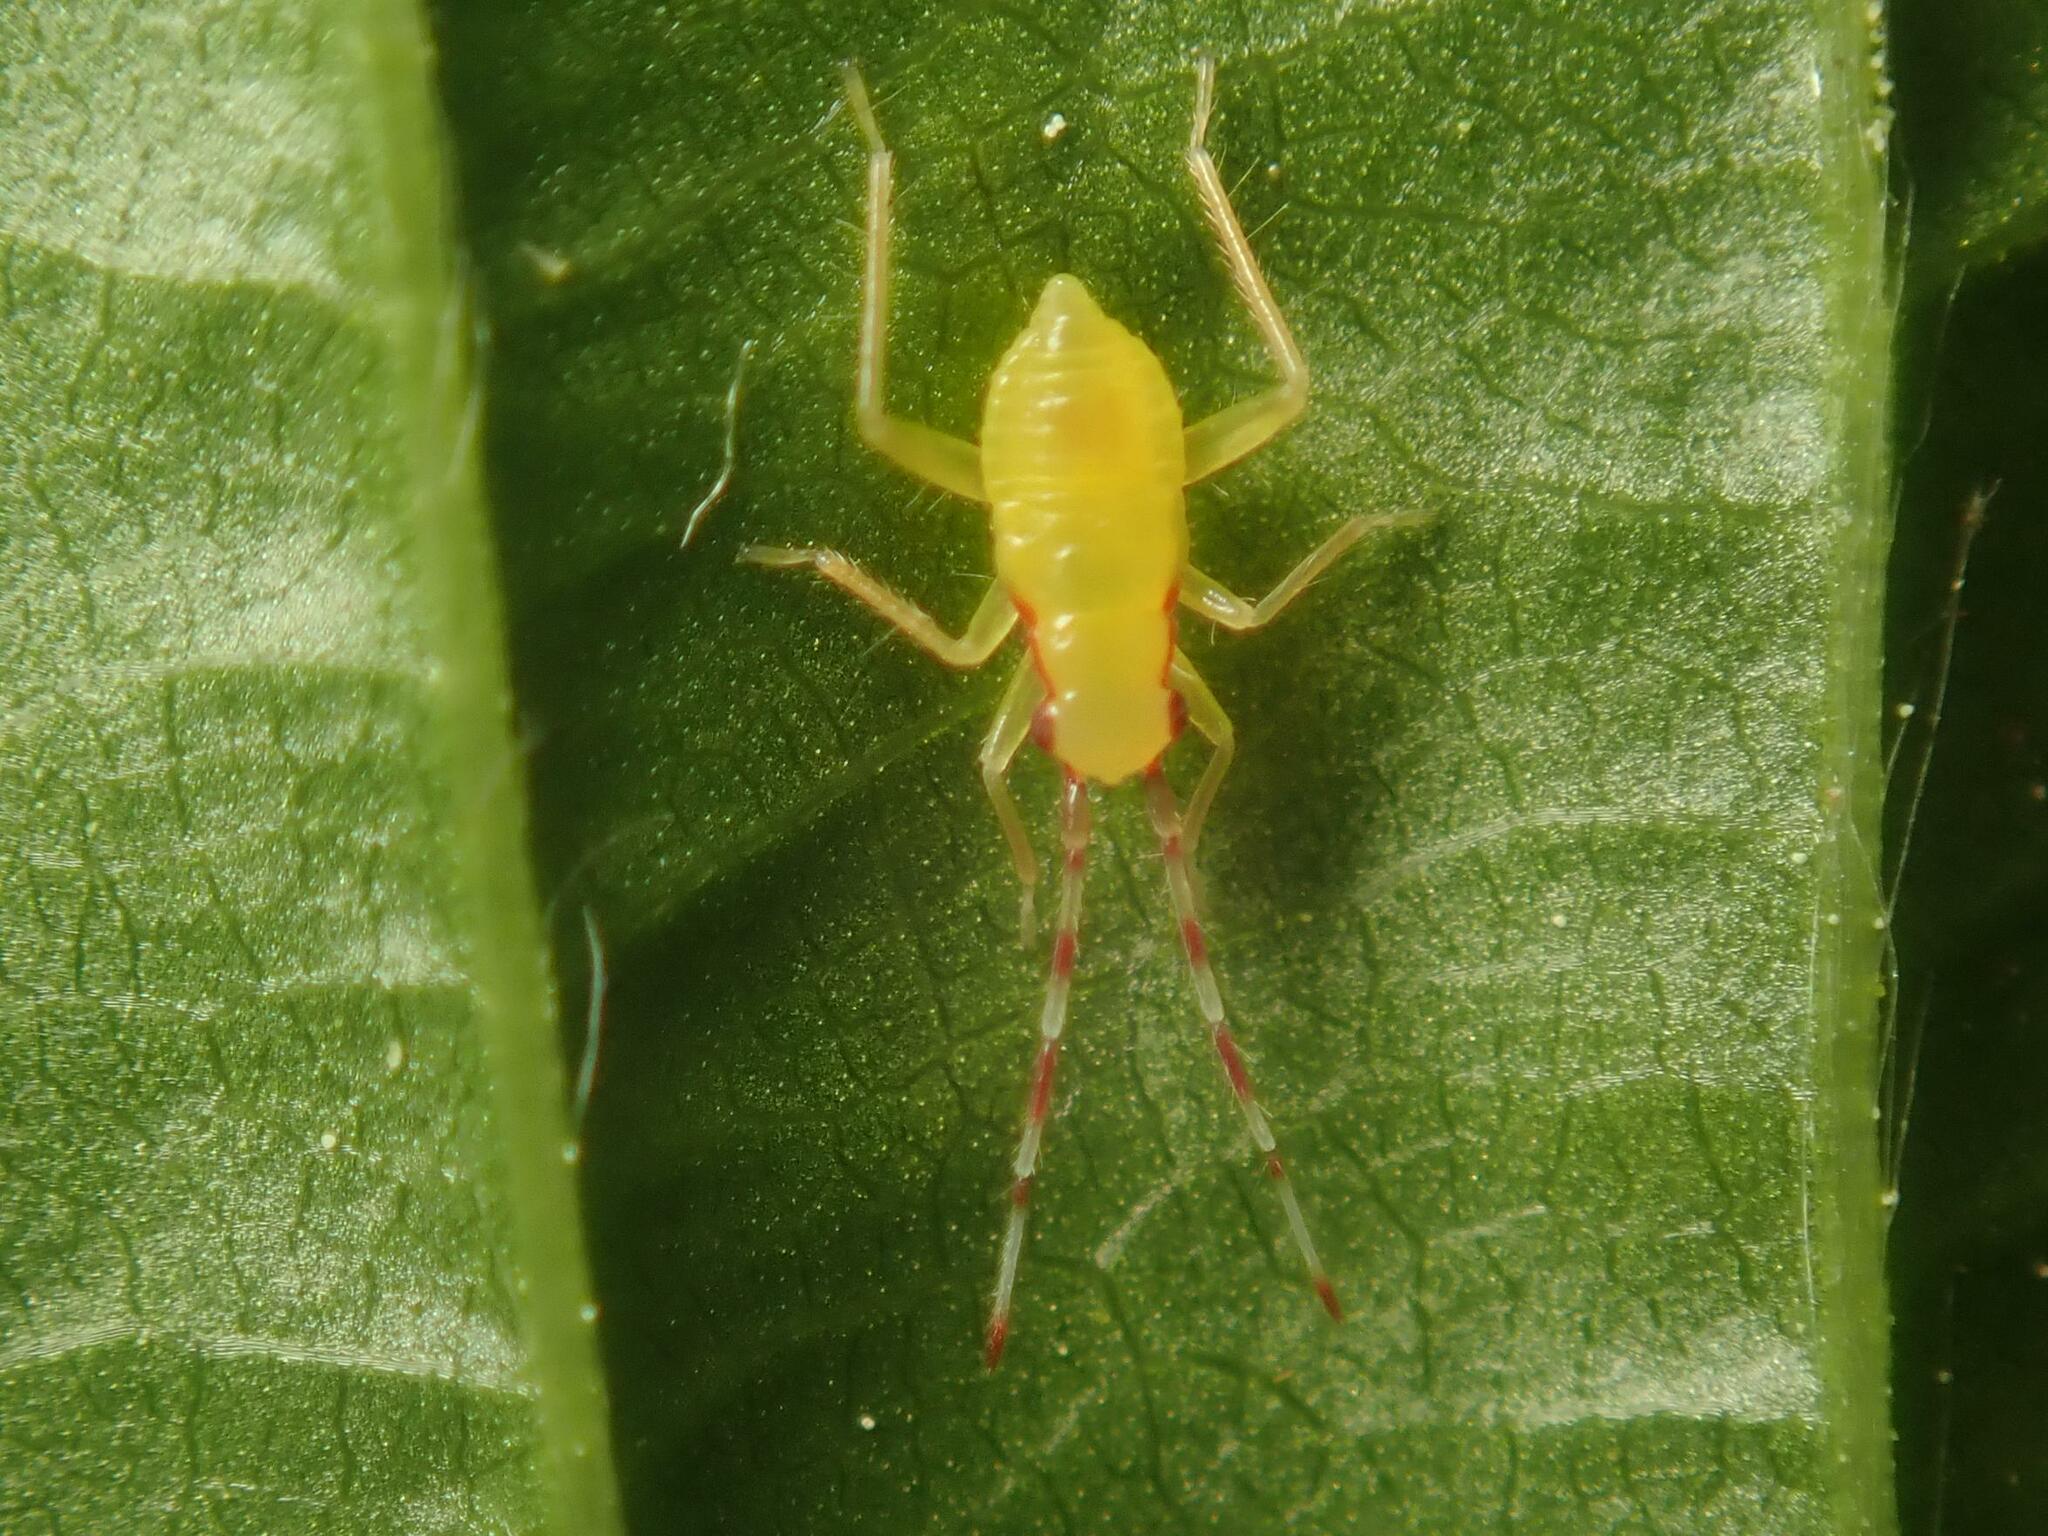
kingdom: Animalia
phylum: Arthropoda
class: Insecta
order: Hemiptera
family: Miridae
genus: Campyloneura
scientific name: Campyloneura virgula
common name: Predatory bug
